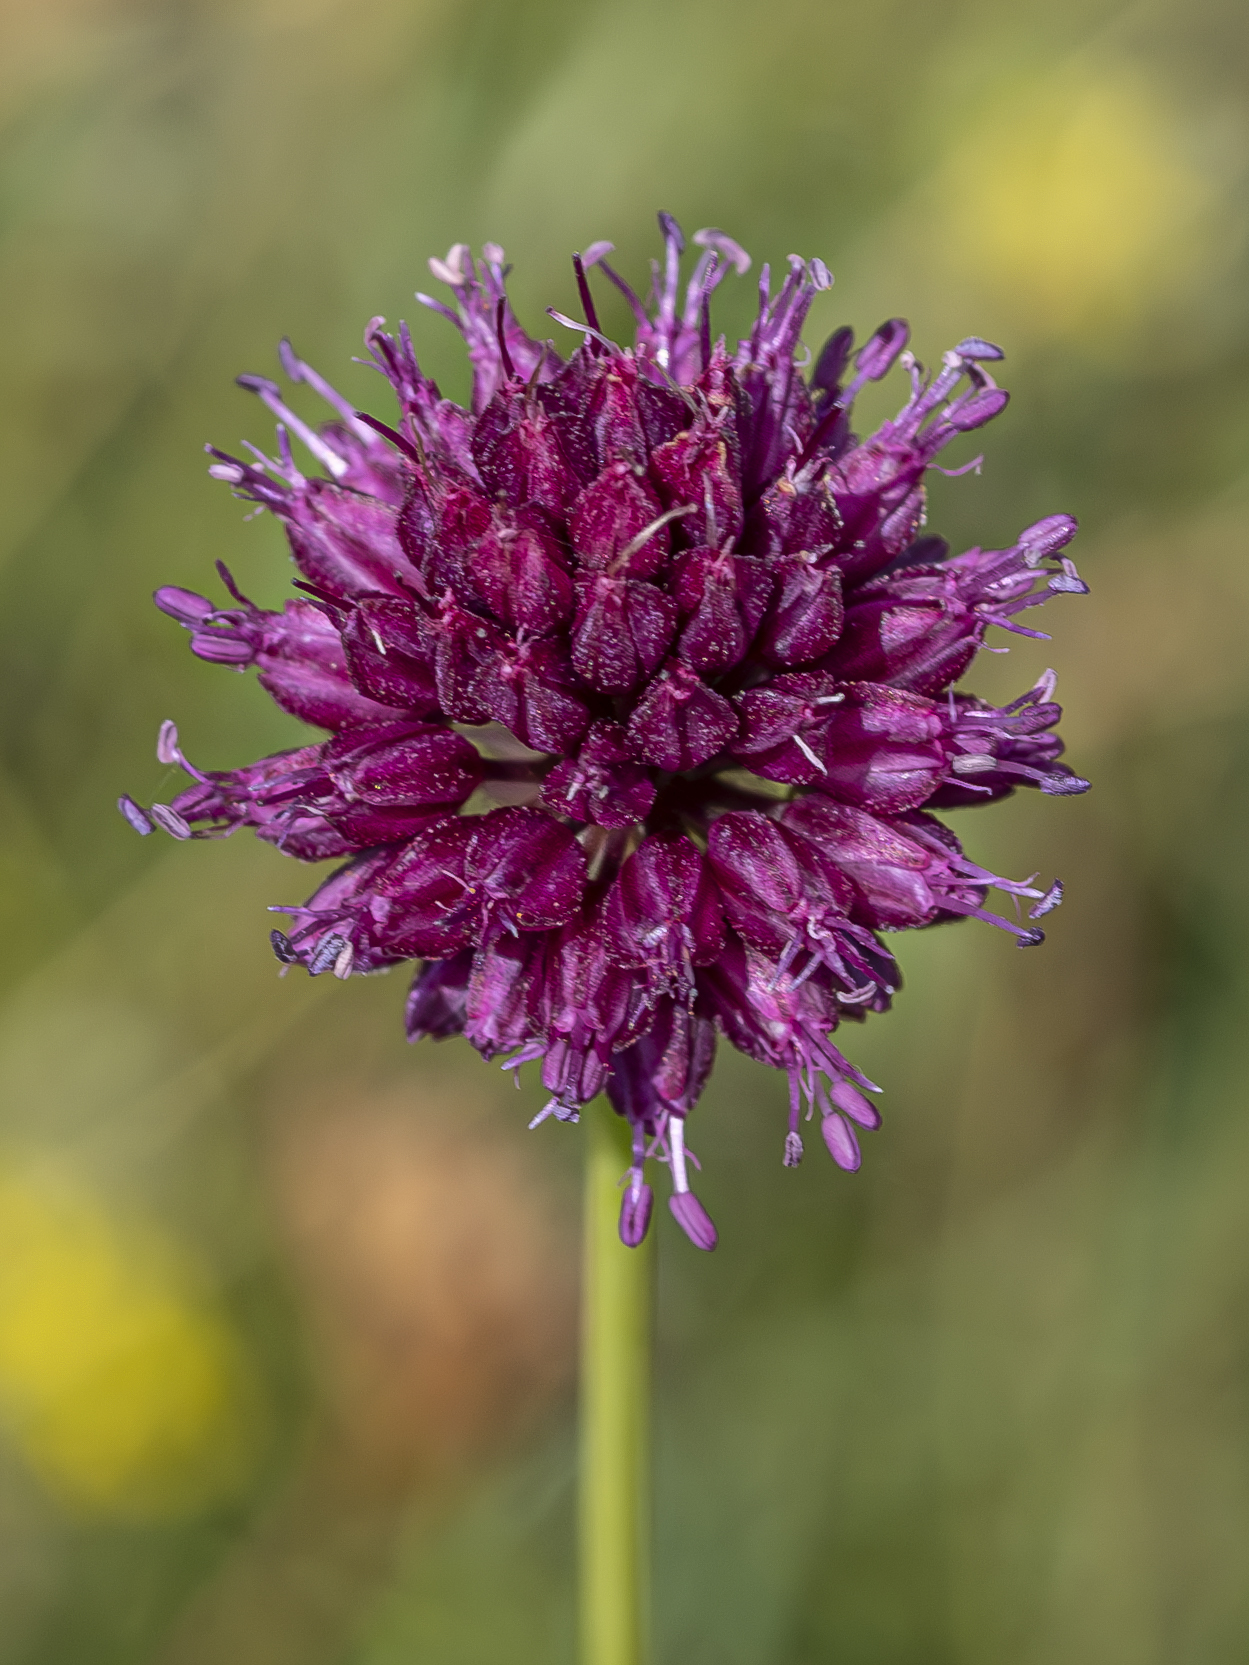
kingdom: Plantae
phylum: Tracheophyta
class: Liliopsida
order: Asparagales
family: Amaryllidaceae
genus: Allium
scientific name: Allium sphaerocephalon
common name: Round-headed leek
